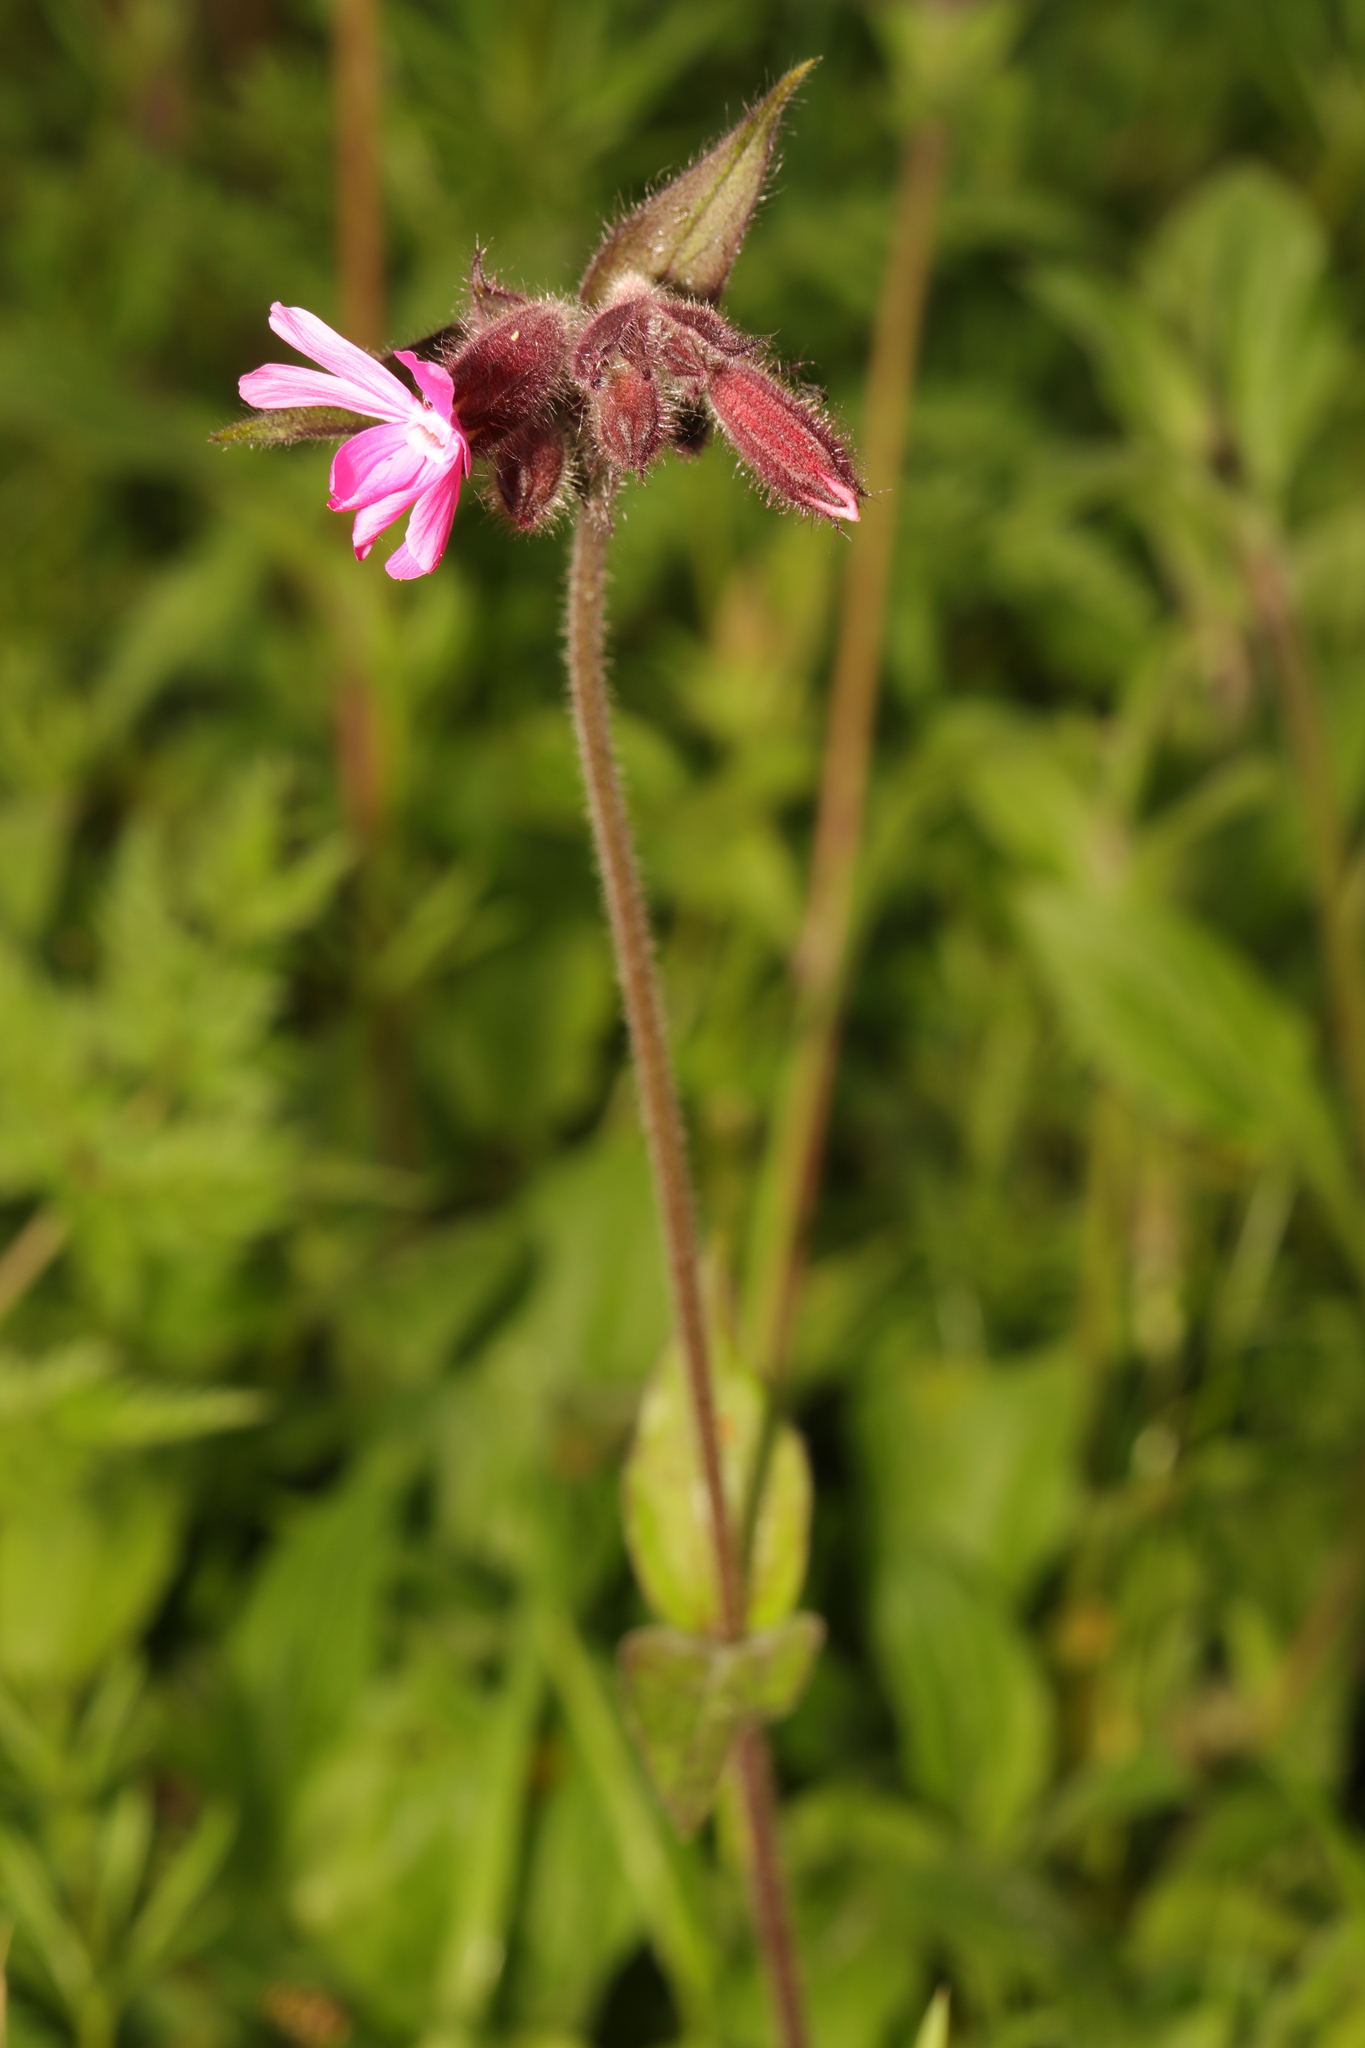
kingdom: Plantae
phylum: Tracheophyta
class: Magnoliopsida
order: Caryophyllales
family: Caryophyllaceae
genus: Silene
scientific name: Silene dioica
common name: Red campion
